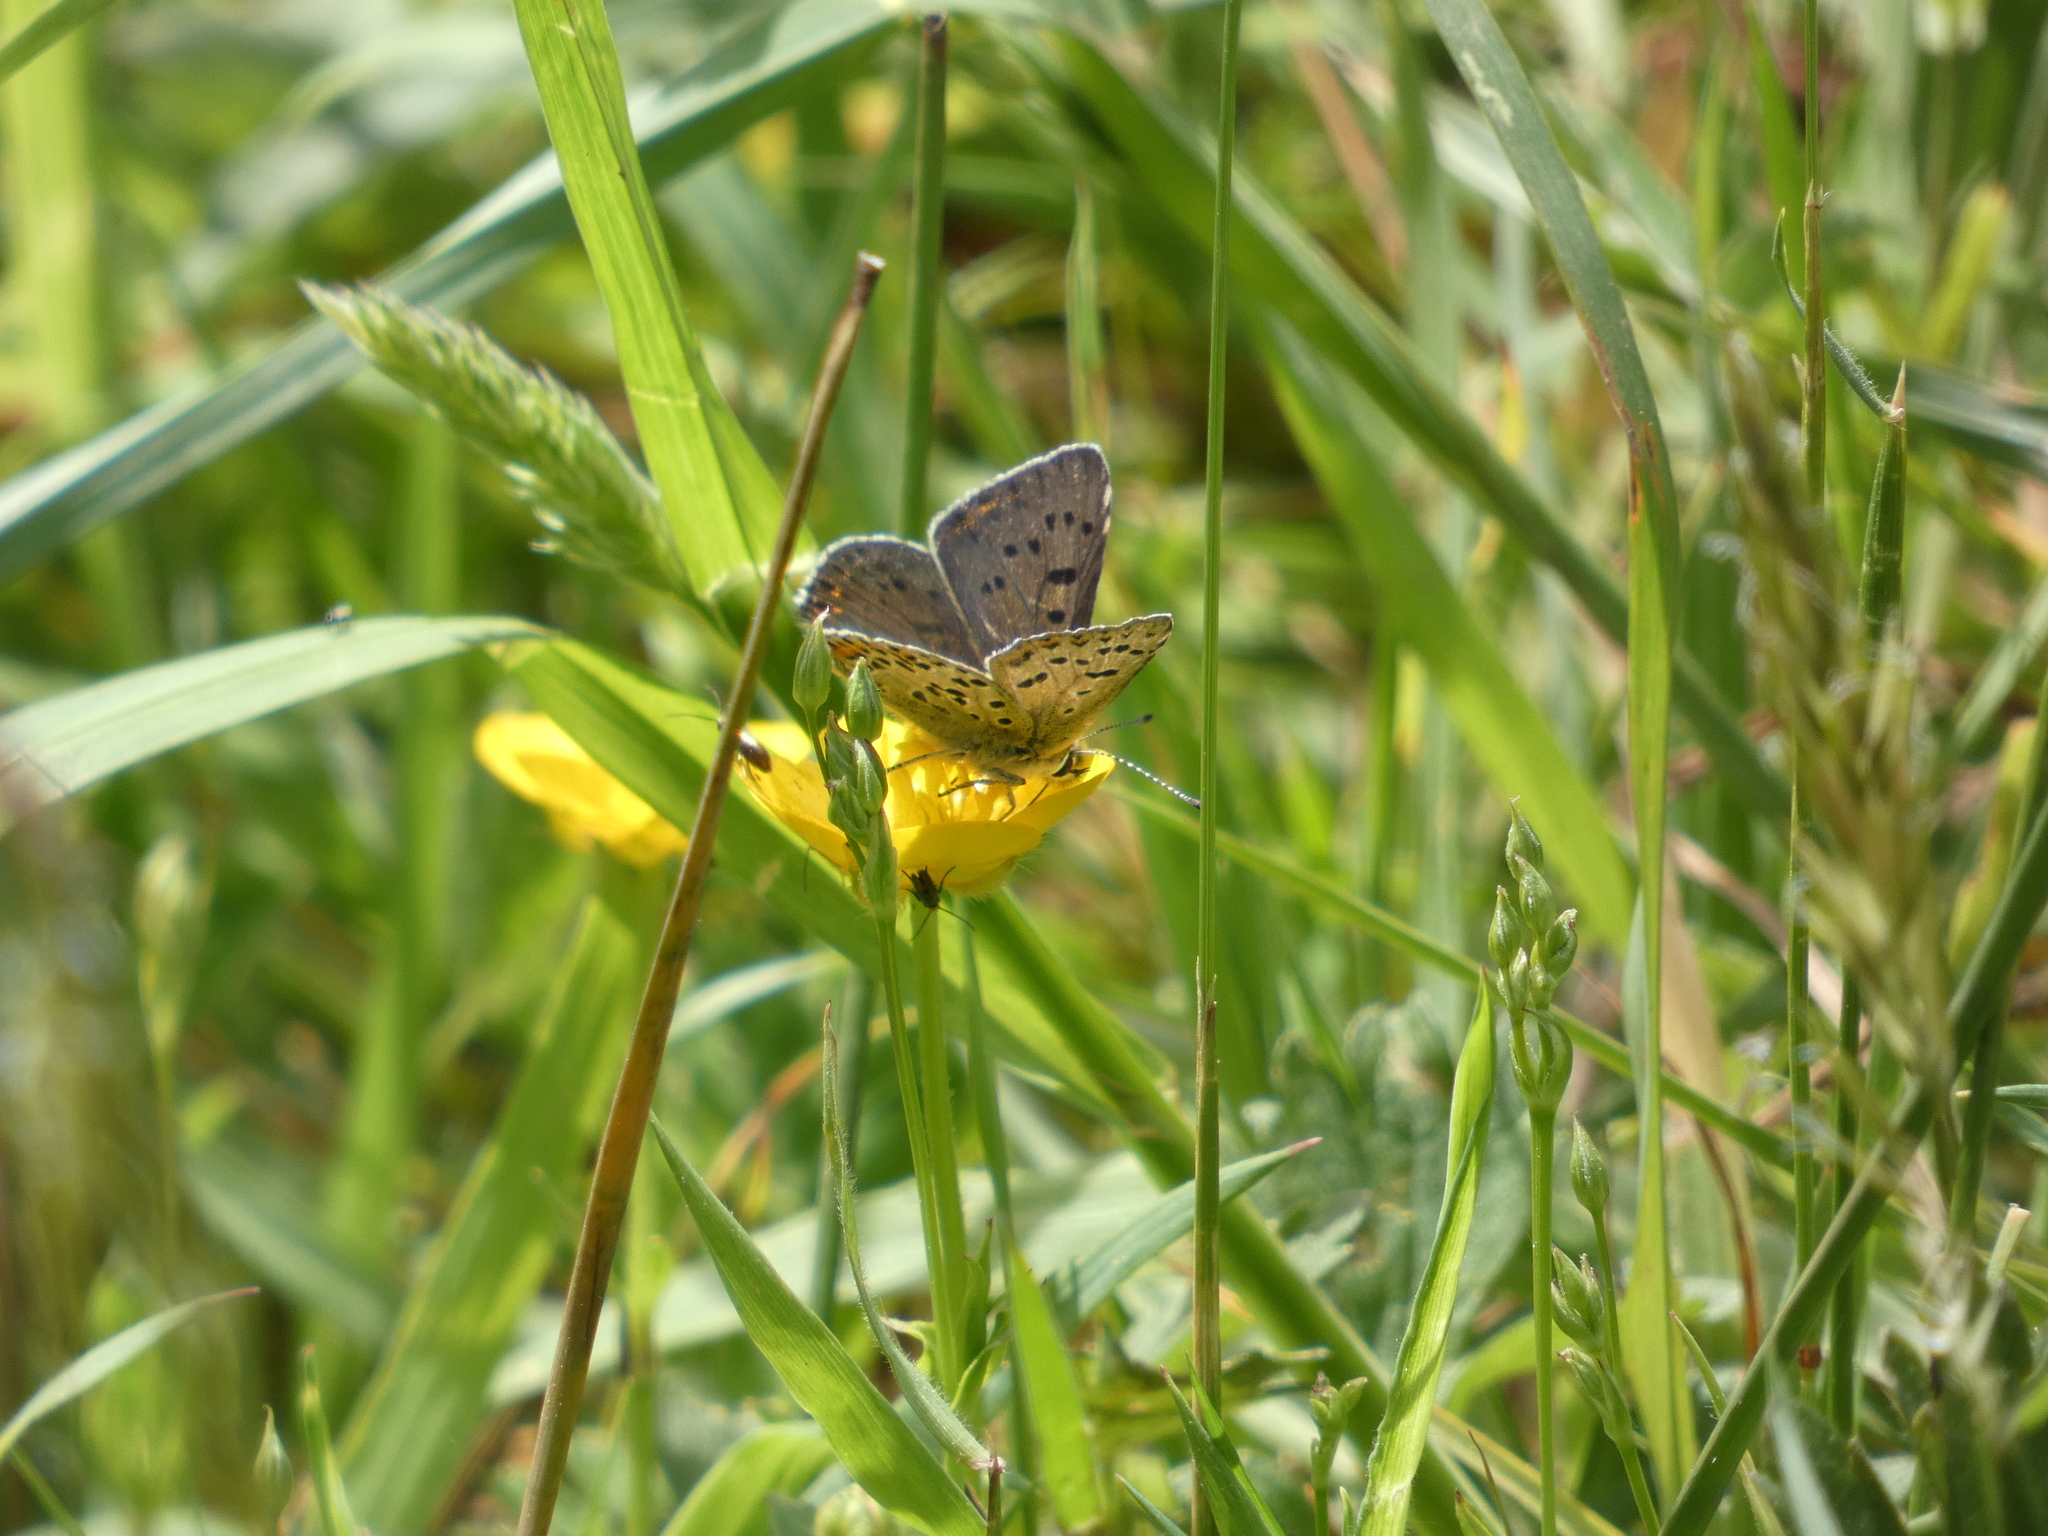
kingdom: Animalia
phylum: Arthropoda
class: Insecta
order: Lepidoptera
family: Lycaenidae
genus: Loweia
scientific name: Loweia tityrus
